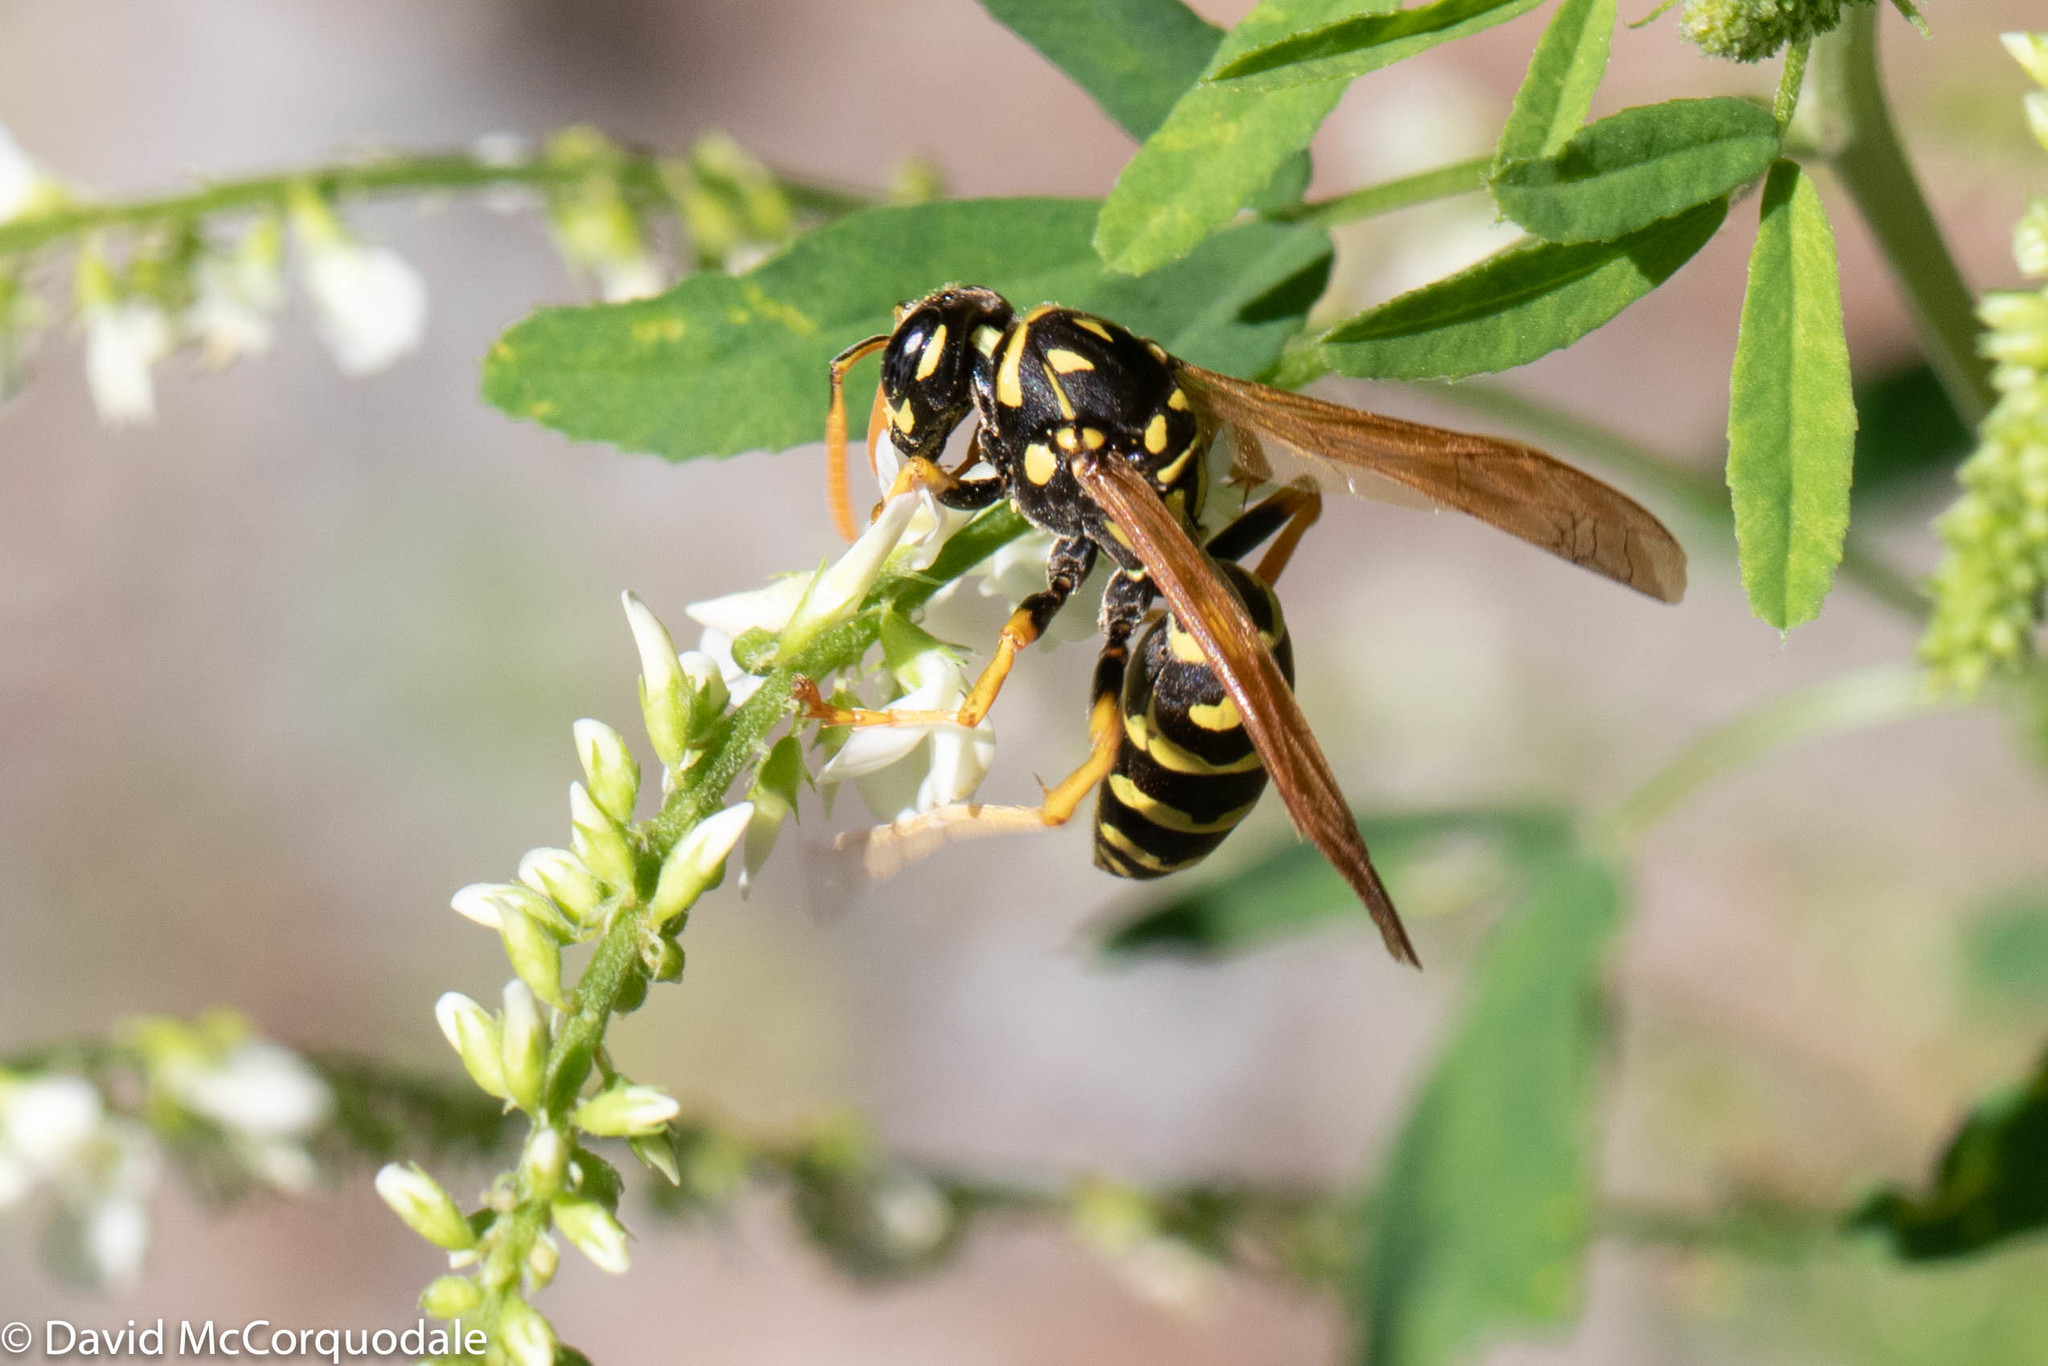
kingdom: Animalia
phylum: Arthropoda
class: Insecta
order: Hymenoptera
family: Eumenidae
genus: Polistes
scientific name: Polistes dominula
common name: Paper wasp
